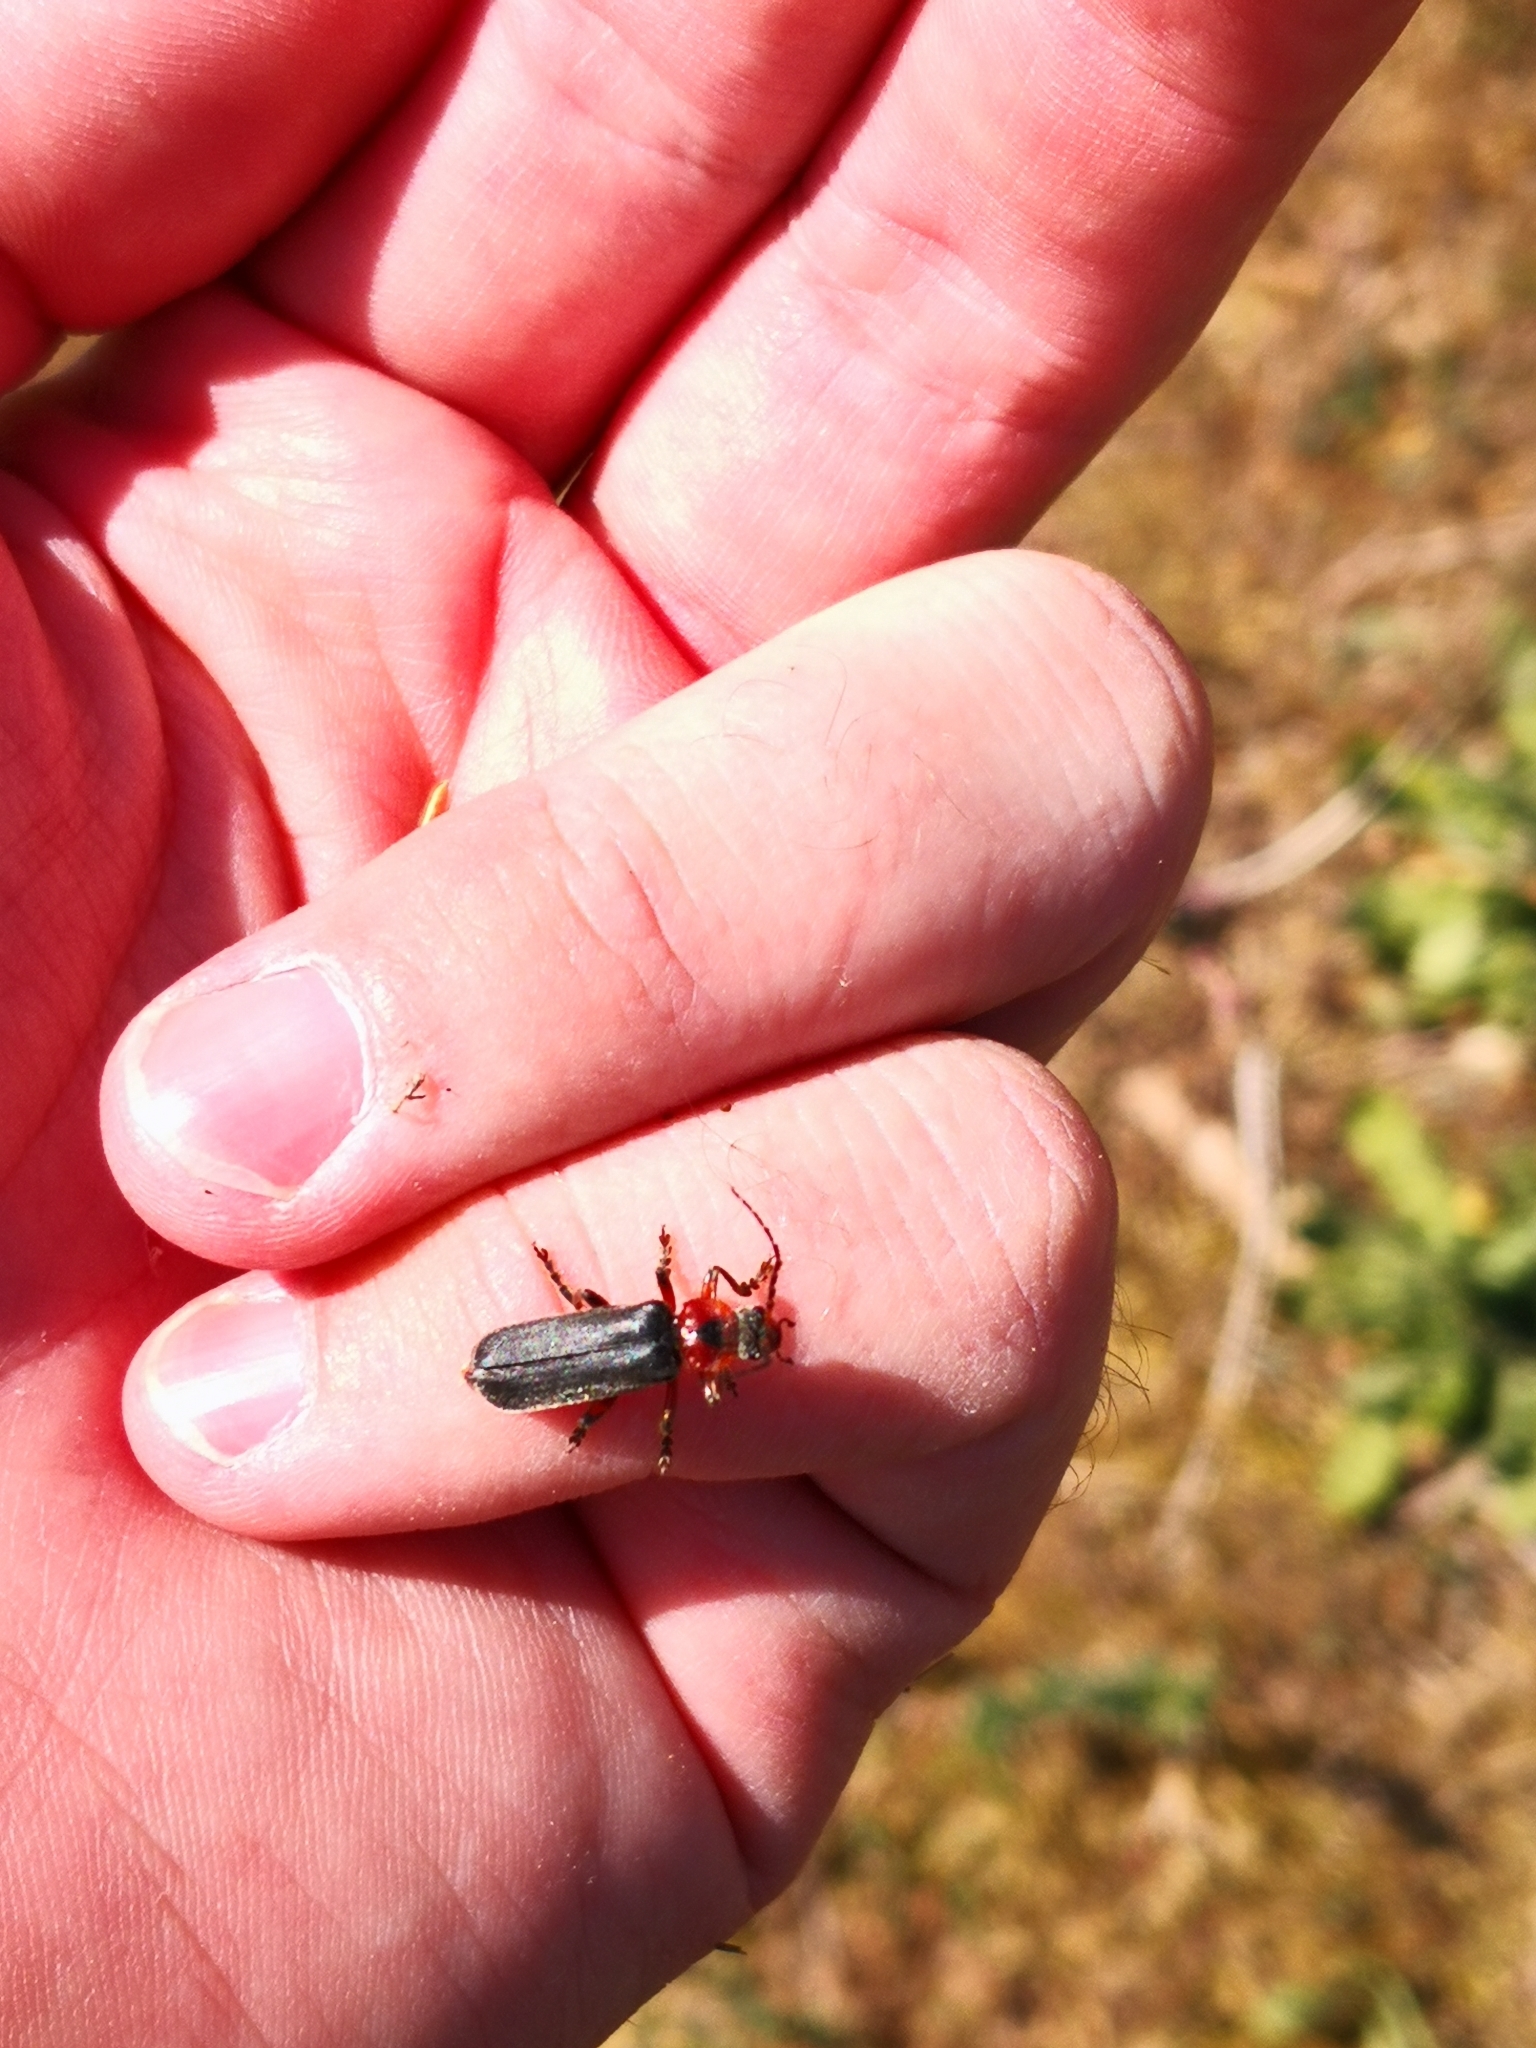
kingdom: Animalia
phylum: Arthropoda
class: Insecta
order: Coleoptera
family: Cantharidae
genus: Cantharis
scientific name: Cantharis rustica
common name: Soldier beetle
